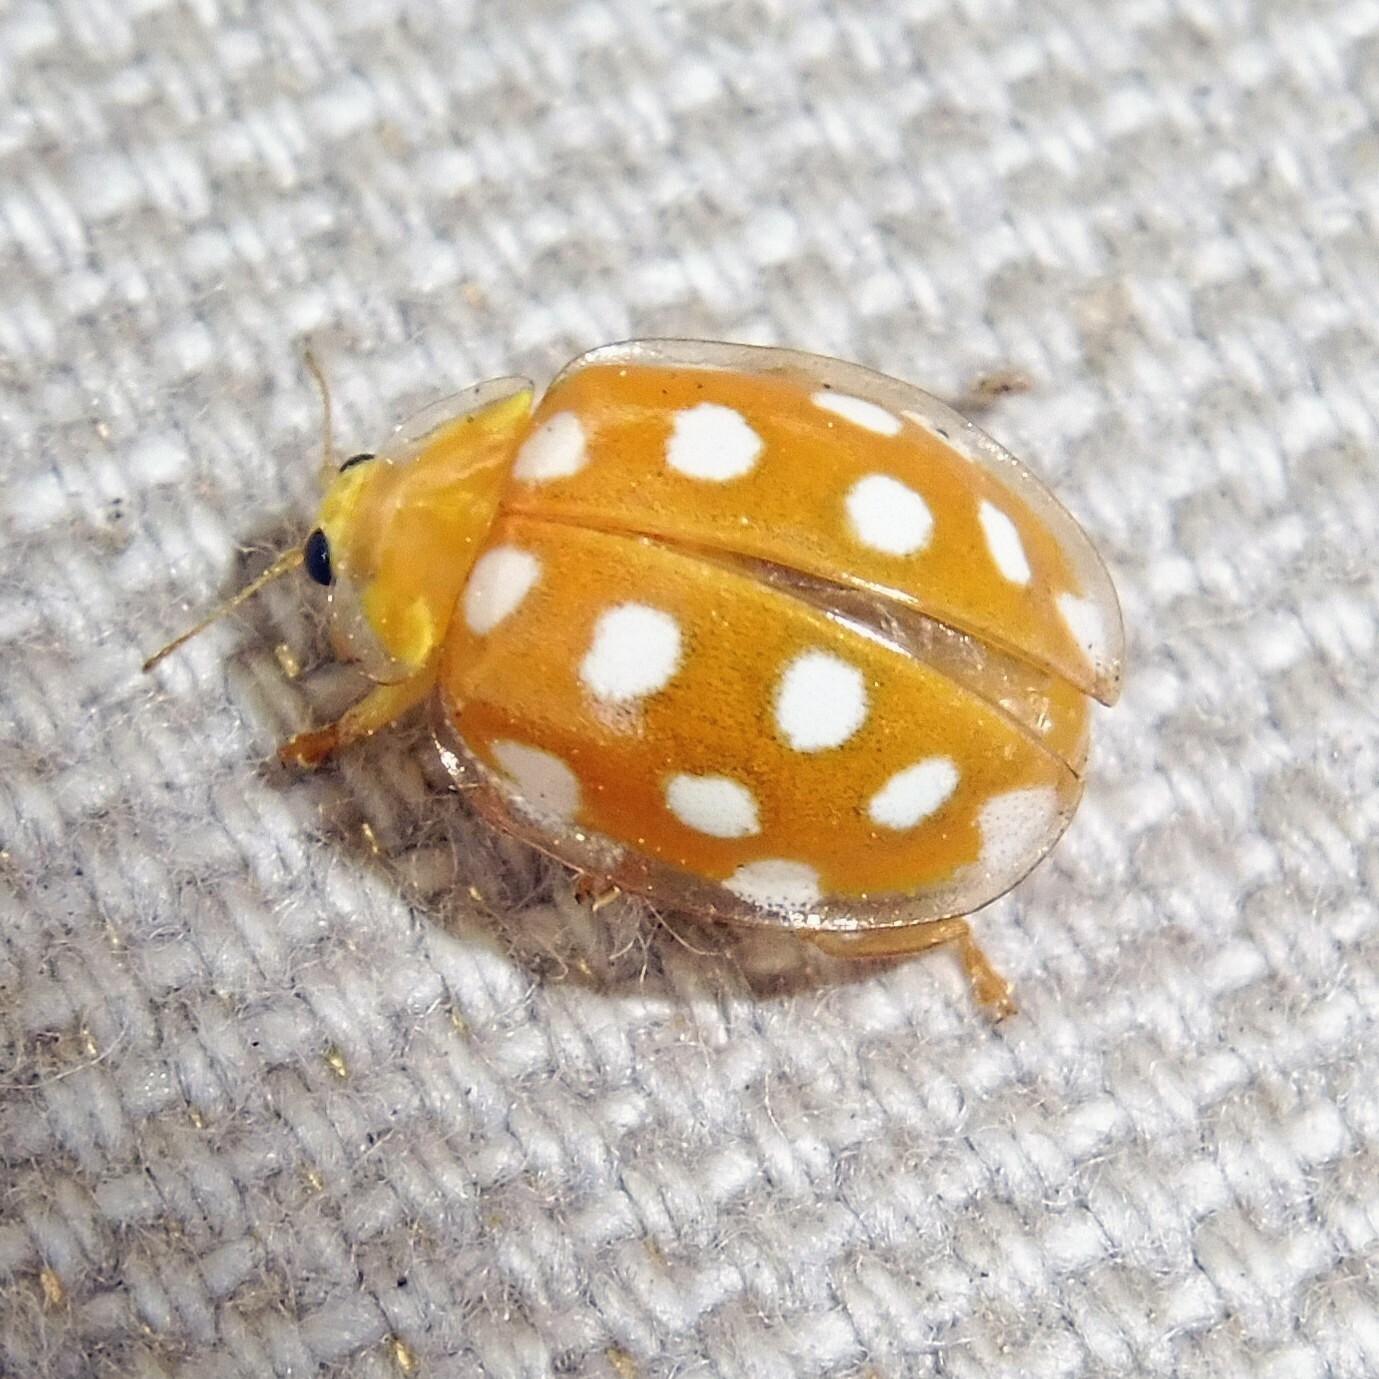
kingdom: Animalia
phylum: Arthropoda
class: Insecta
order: Coleoptera
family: Coccinellidae
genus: Halyzia
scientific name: Halyzia sedecimguttata
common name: Orange ladybird
